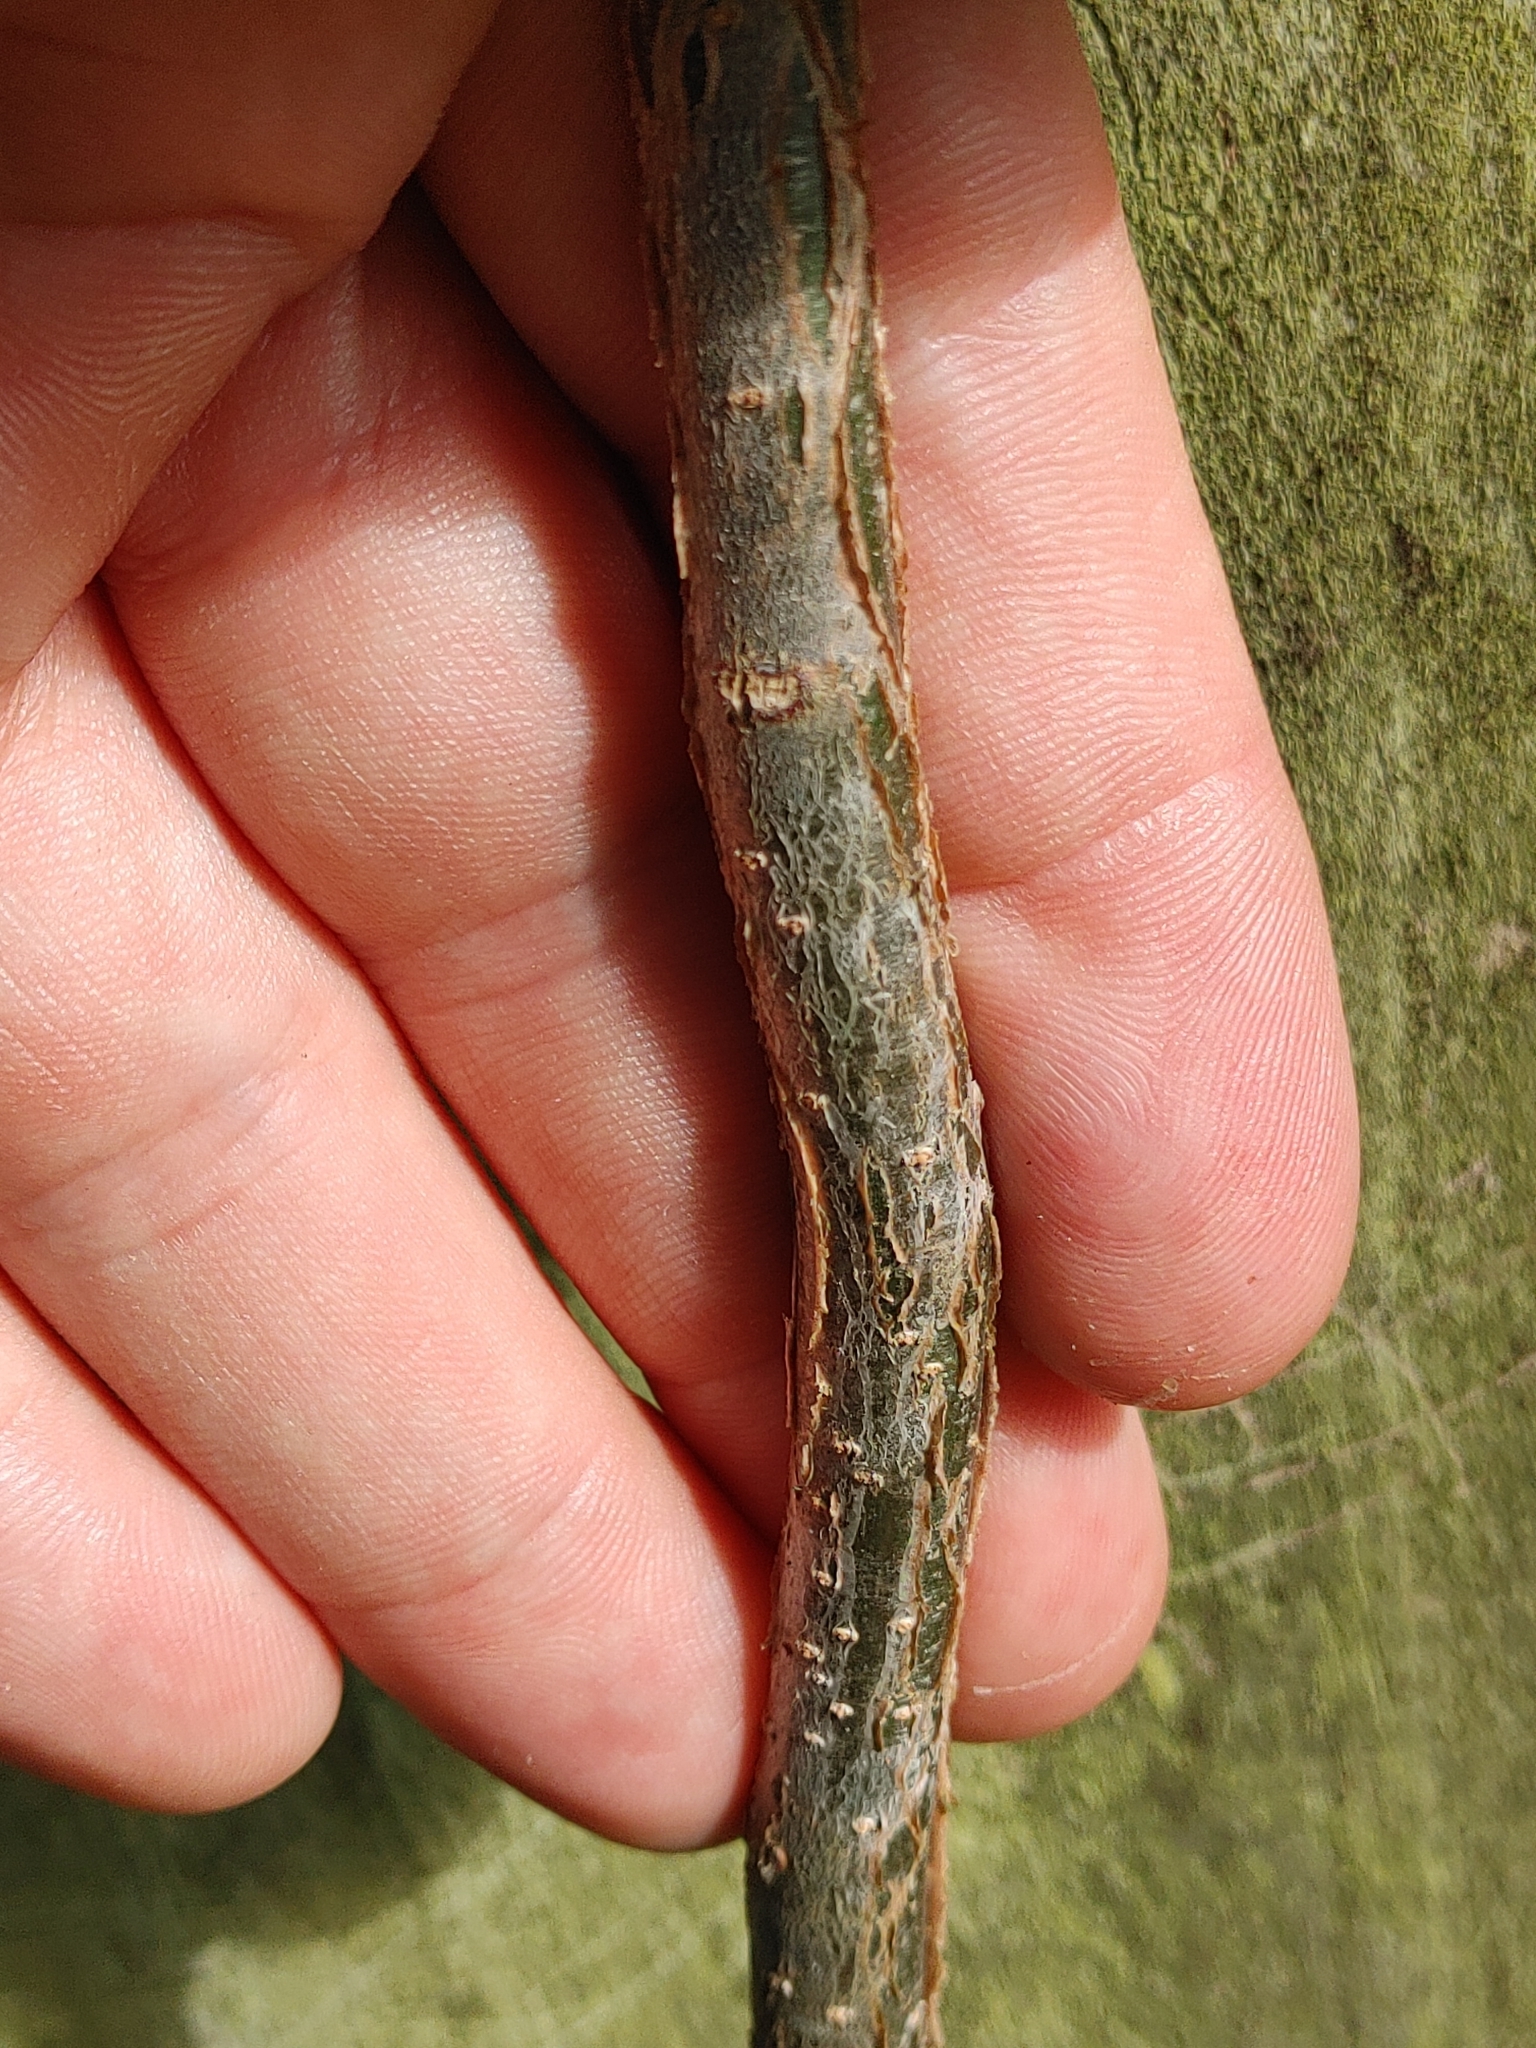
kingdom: Plantae
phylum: Tracheophyta
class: Magnoliopsida
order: Sapindales
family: Burseraceae
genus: Bursera
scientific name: Bursera simaruba
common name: Turpentine tree
